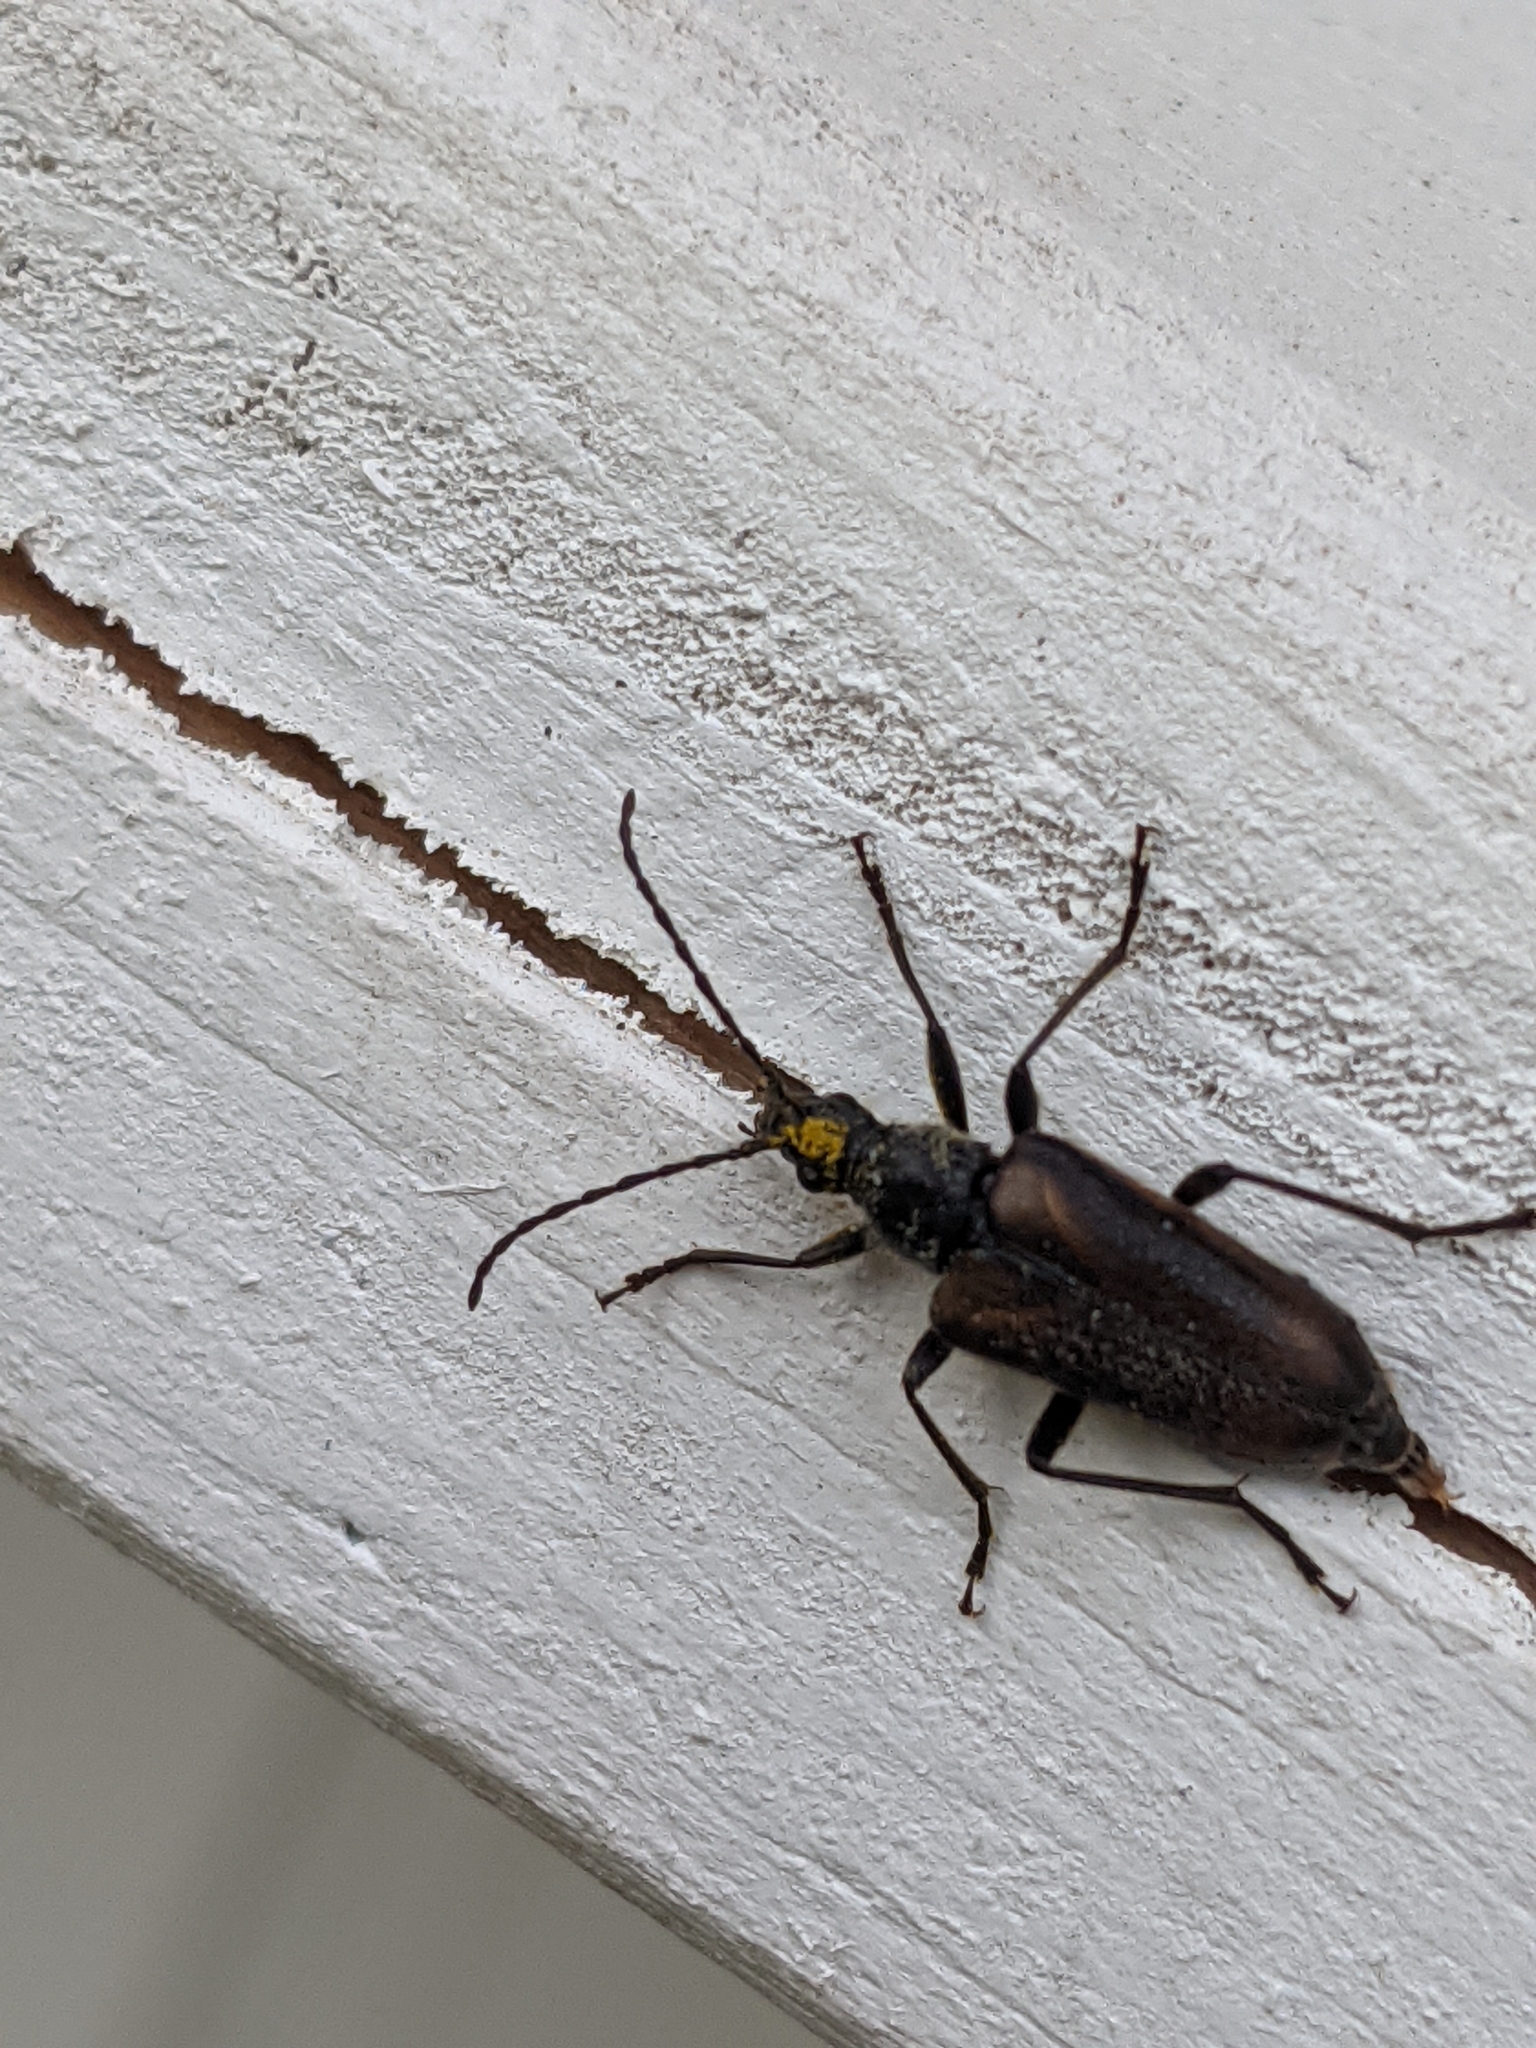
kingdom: Animalia
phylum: Arthropoda
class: Insecta
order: Coleoptera
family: Cerambycidae
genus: Acmaeops
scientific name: Acmaeops proteus
